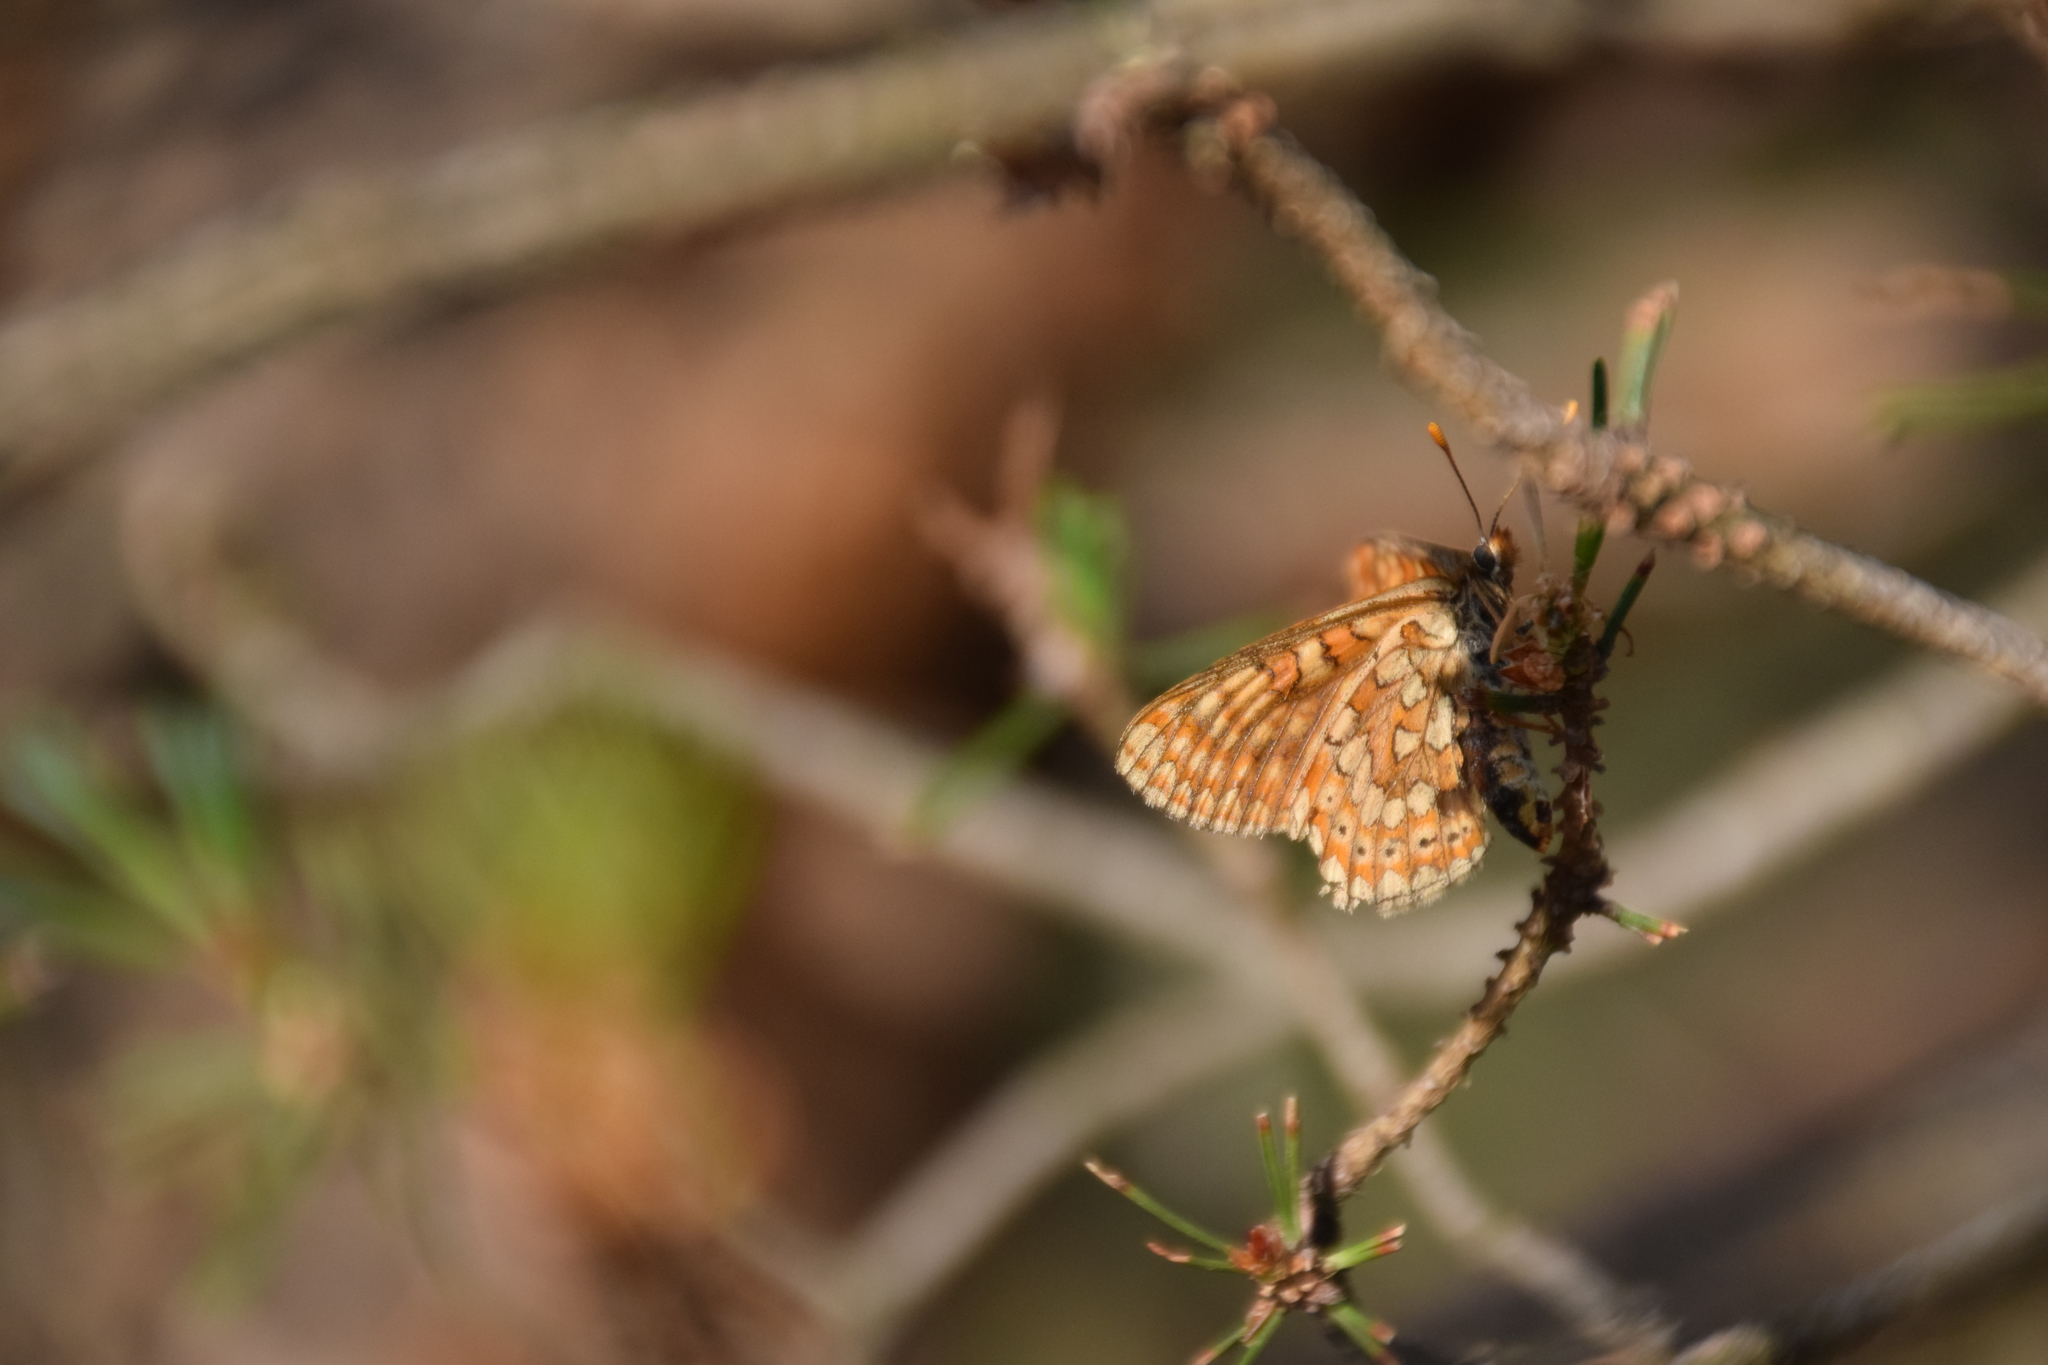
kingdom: Animalia
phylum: Arthropoda
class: Insecta
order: Lepidoptera
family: Nymphalidae
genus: Euphydryas
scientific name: Euphydryas aurinia
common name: Marsh fritillary
